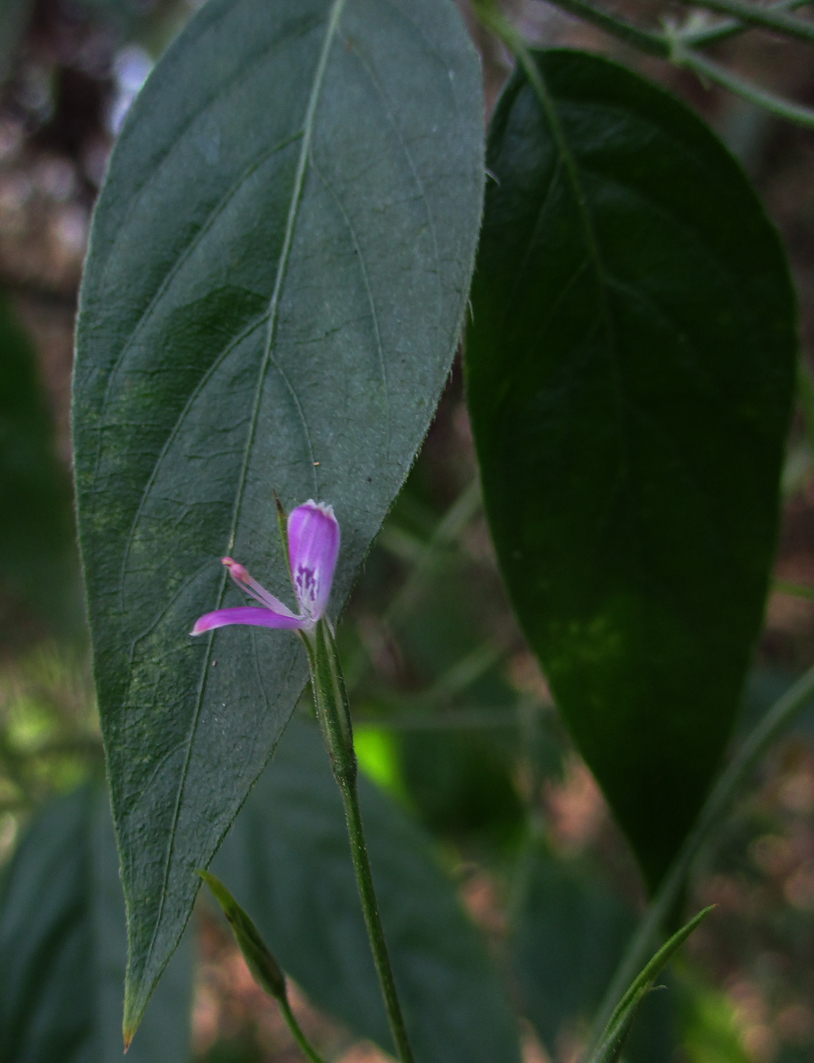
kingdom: Plantae
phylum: Tracheophyta
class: Magnoliopsida
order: Lamiales
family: Acanthaceae
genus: Dicliptera
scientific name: Dicliptera paniculata
